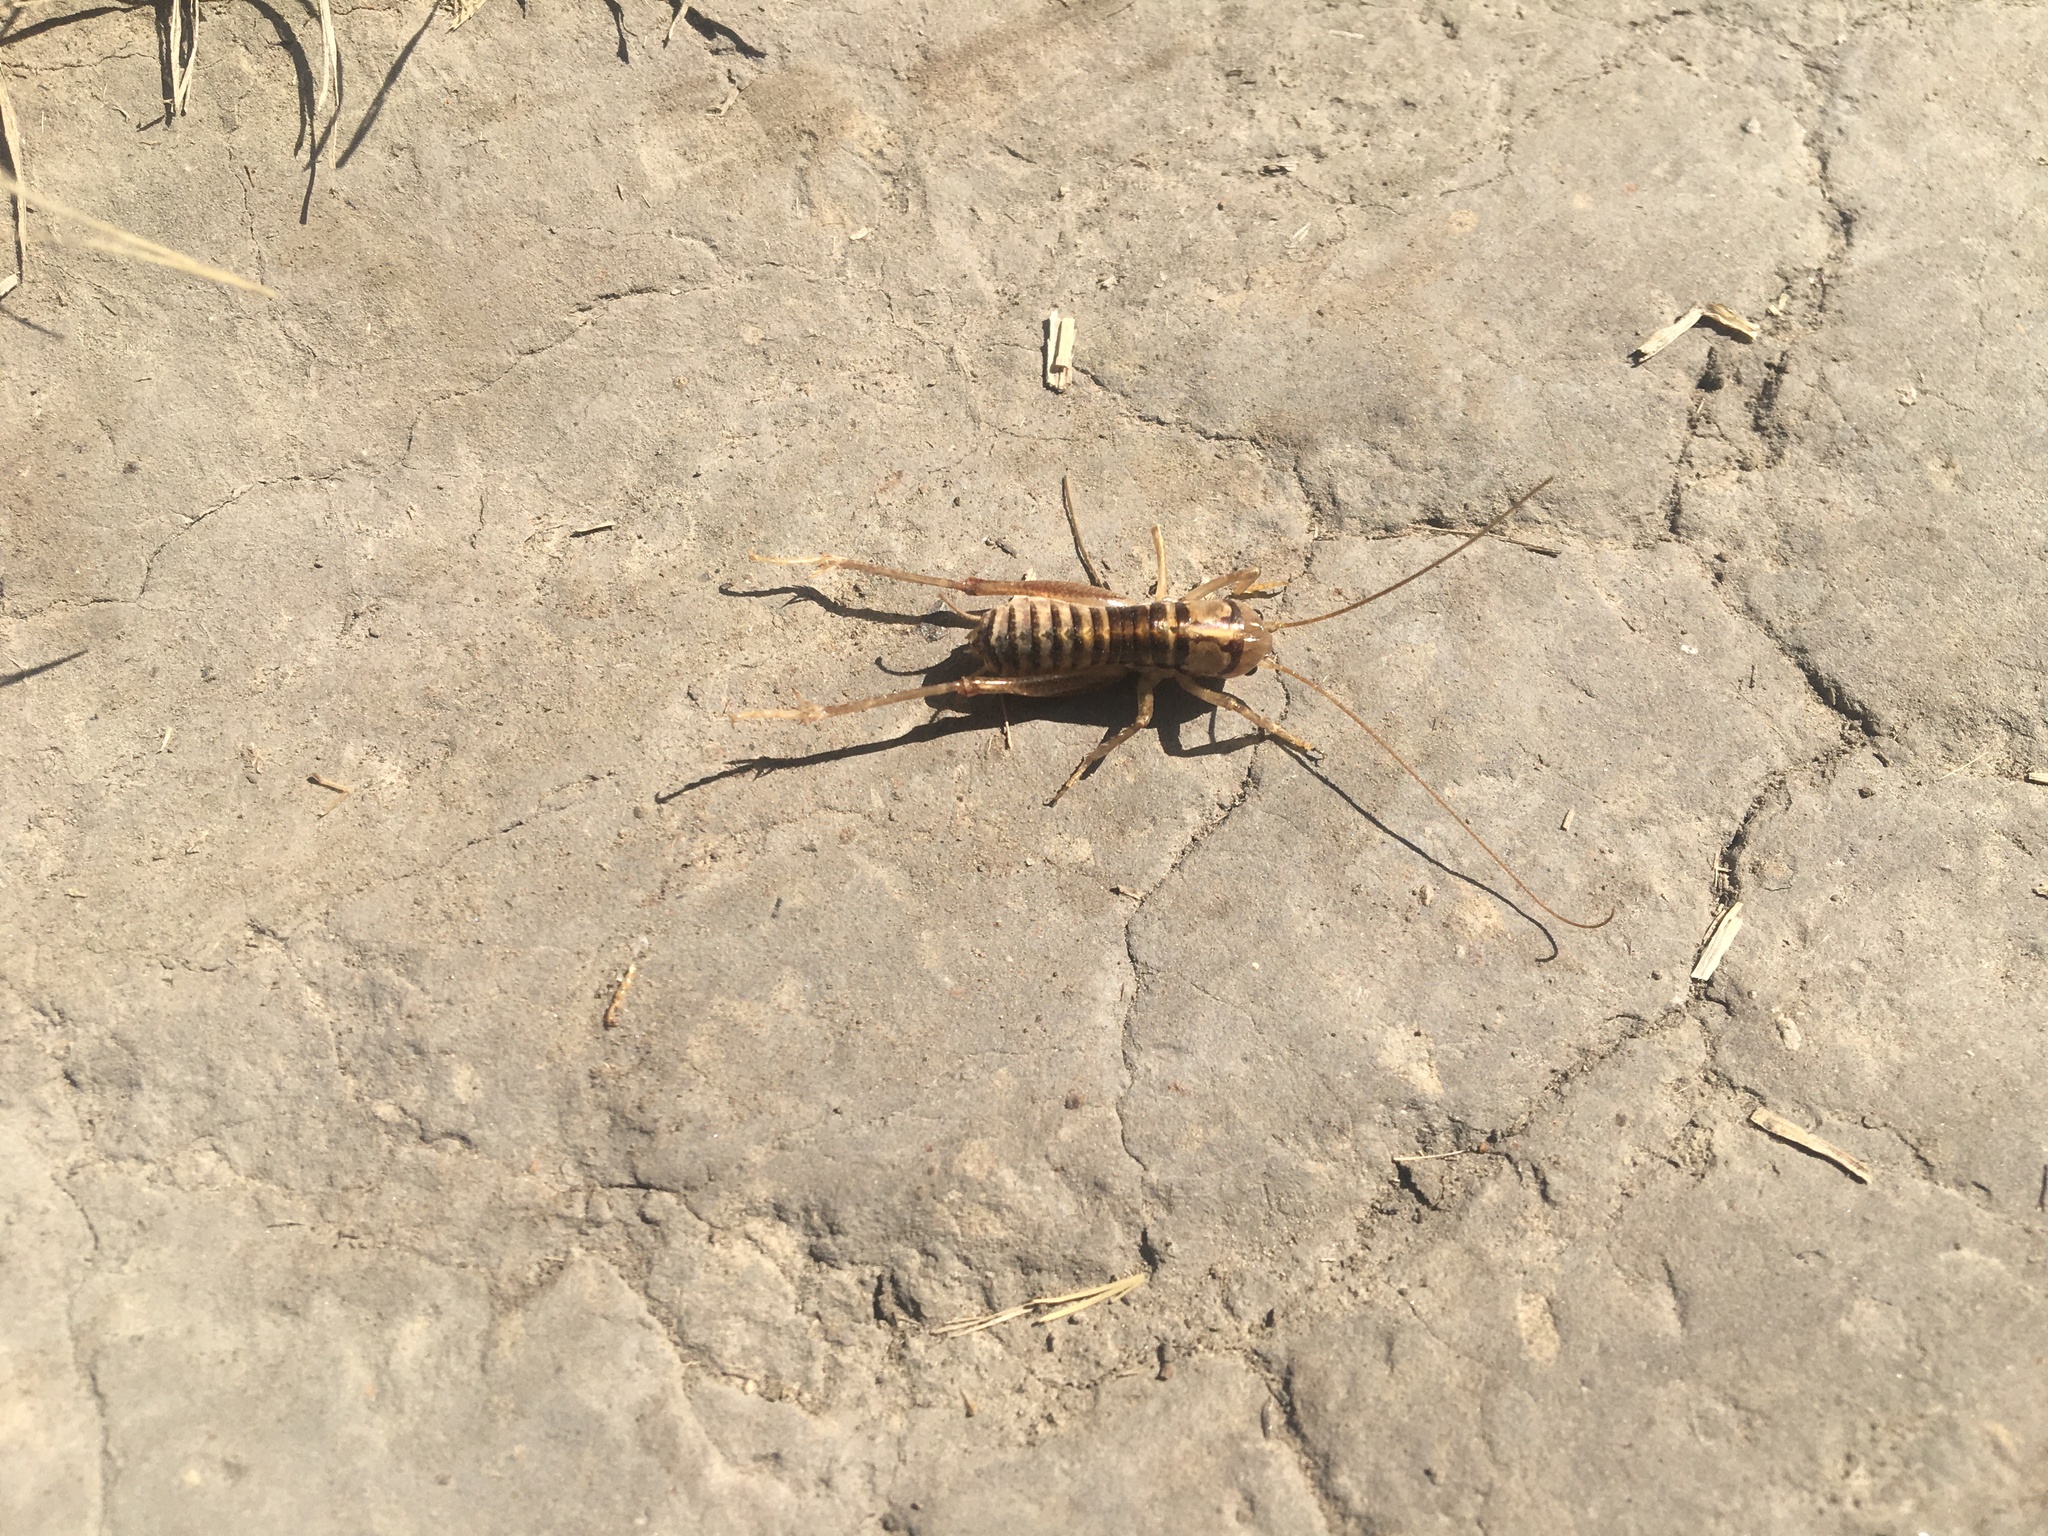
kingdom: Animalia
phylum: Arthropoda
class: Insecta
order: Orthoptera
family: Anostostomatidae
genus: Hemiandrus
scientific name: Hemiandrus celaeno
